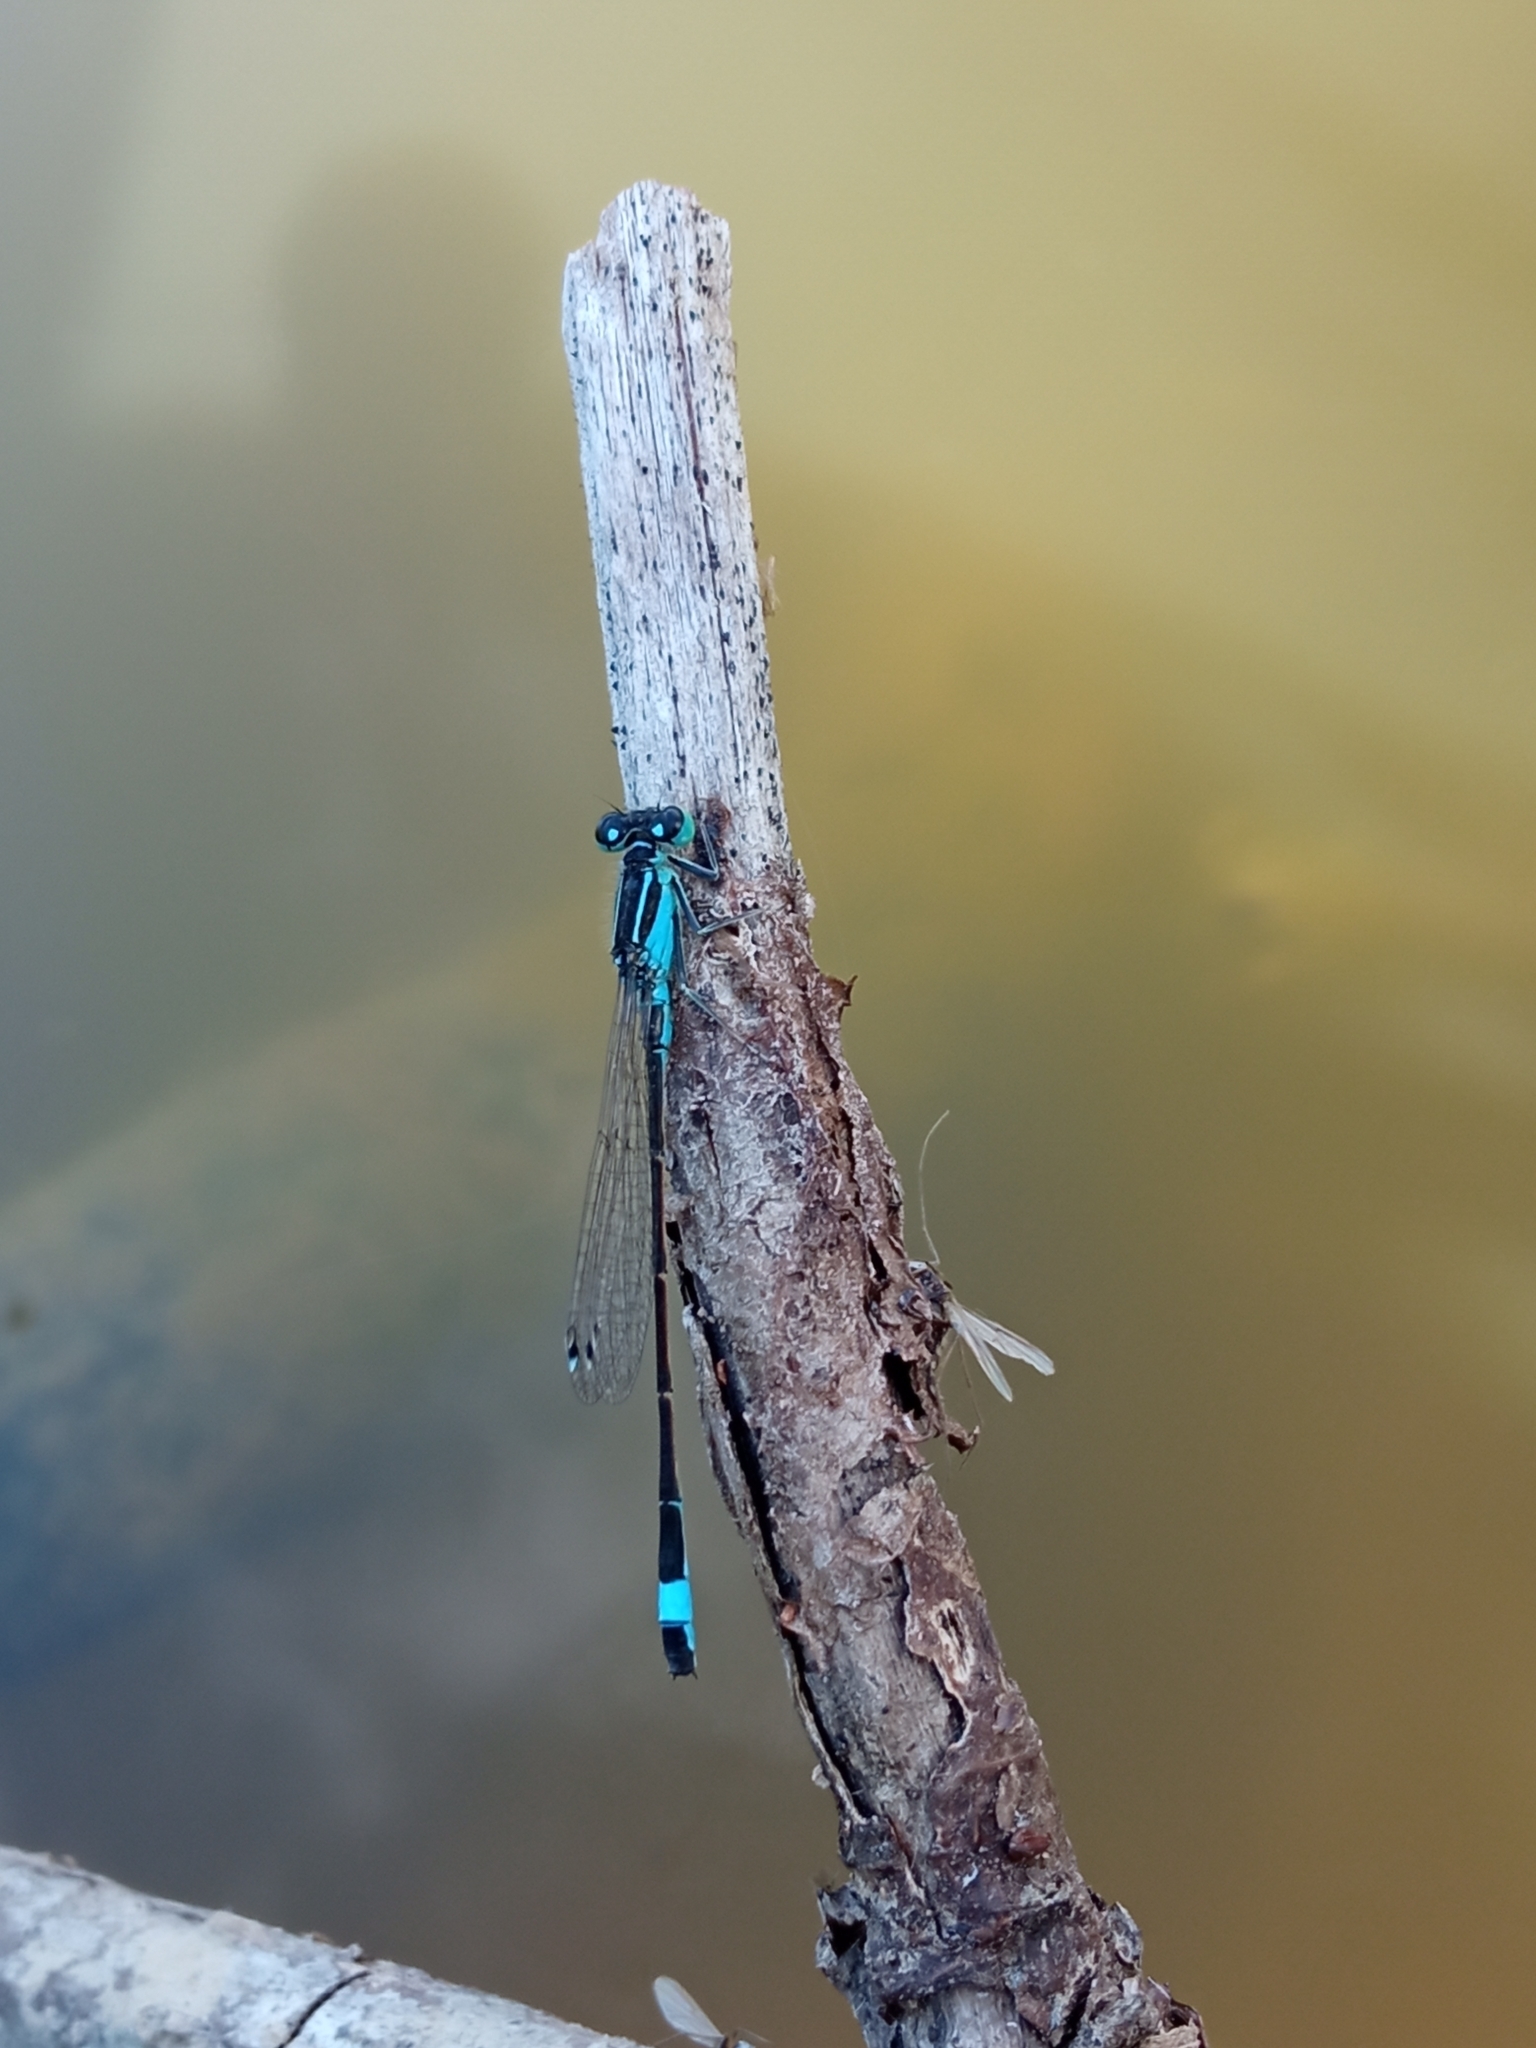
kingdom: Animalia
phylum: Arthropoda
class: Insecta
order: Odonata
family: Coenagrionidae
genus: Ischnura
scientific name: Ischnura elegans
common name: Blue-tailed damselfly
